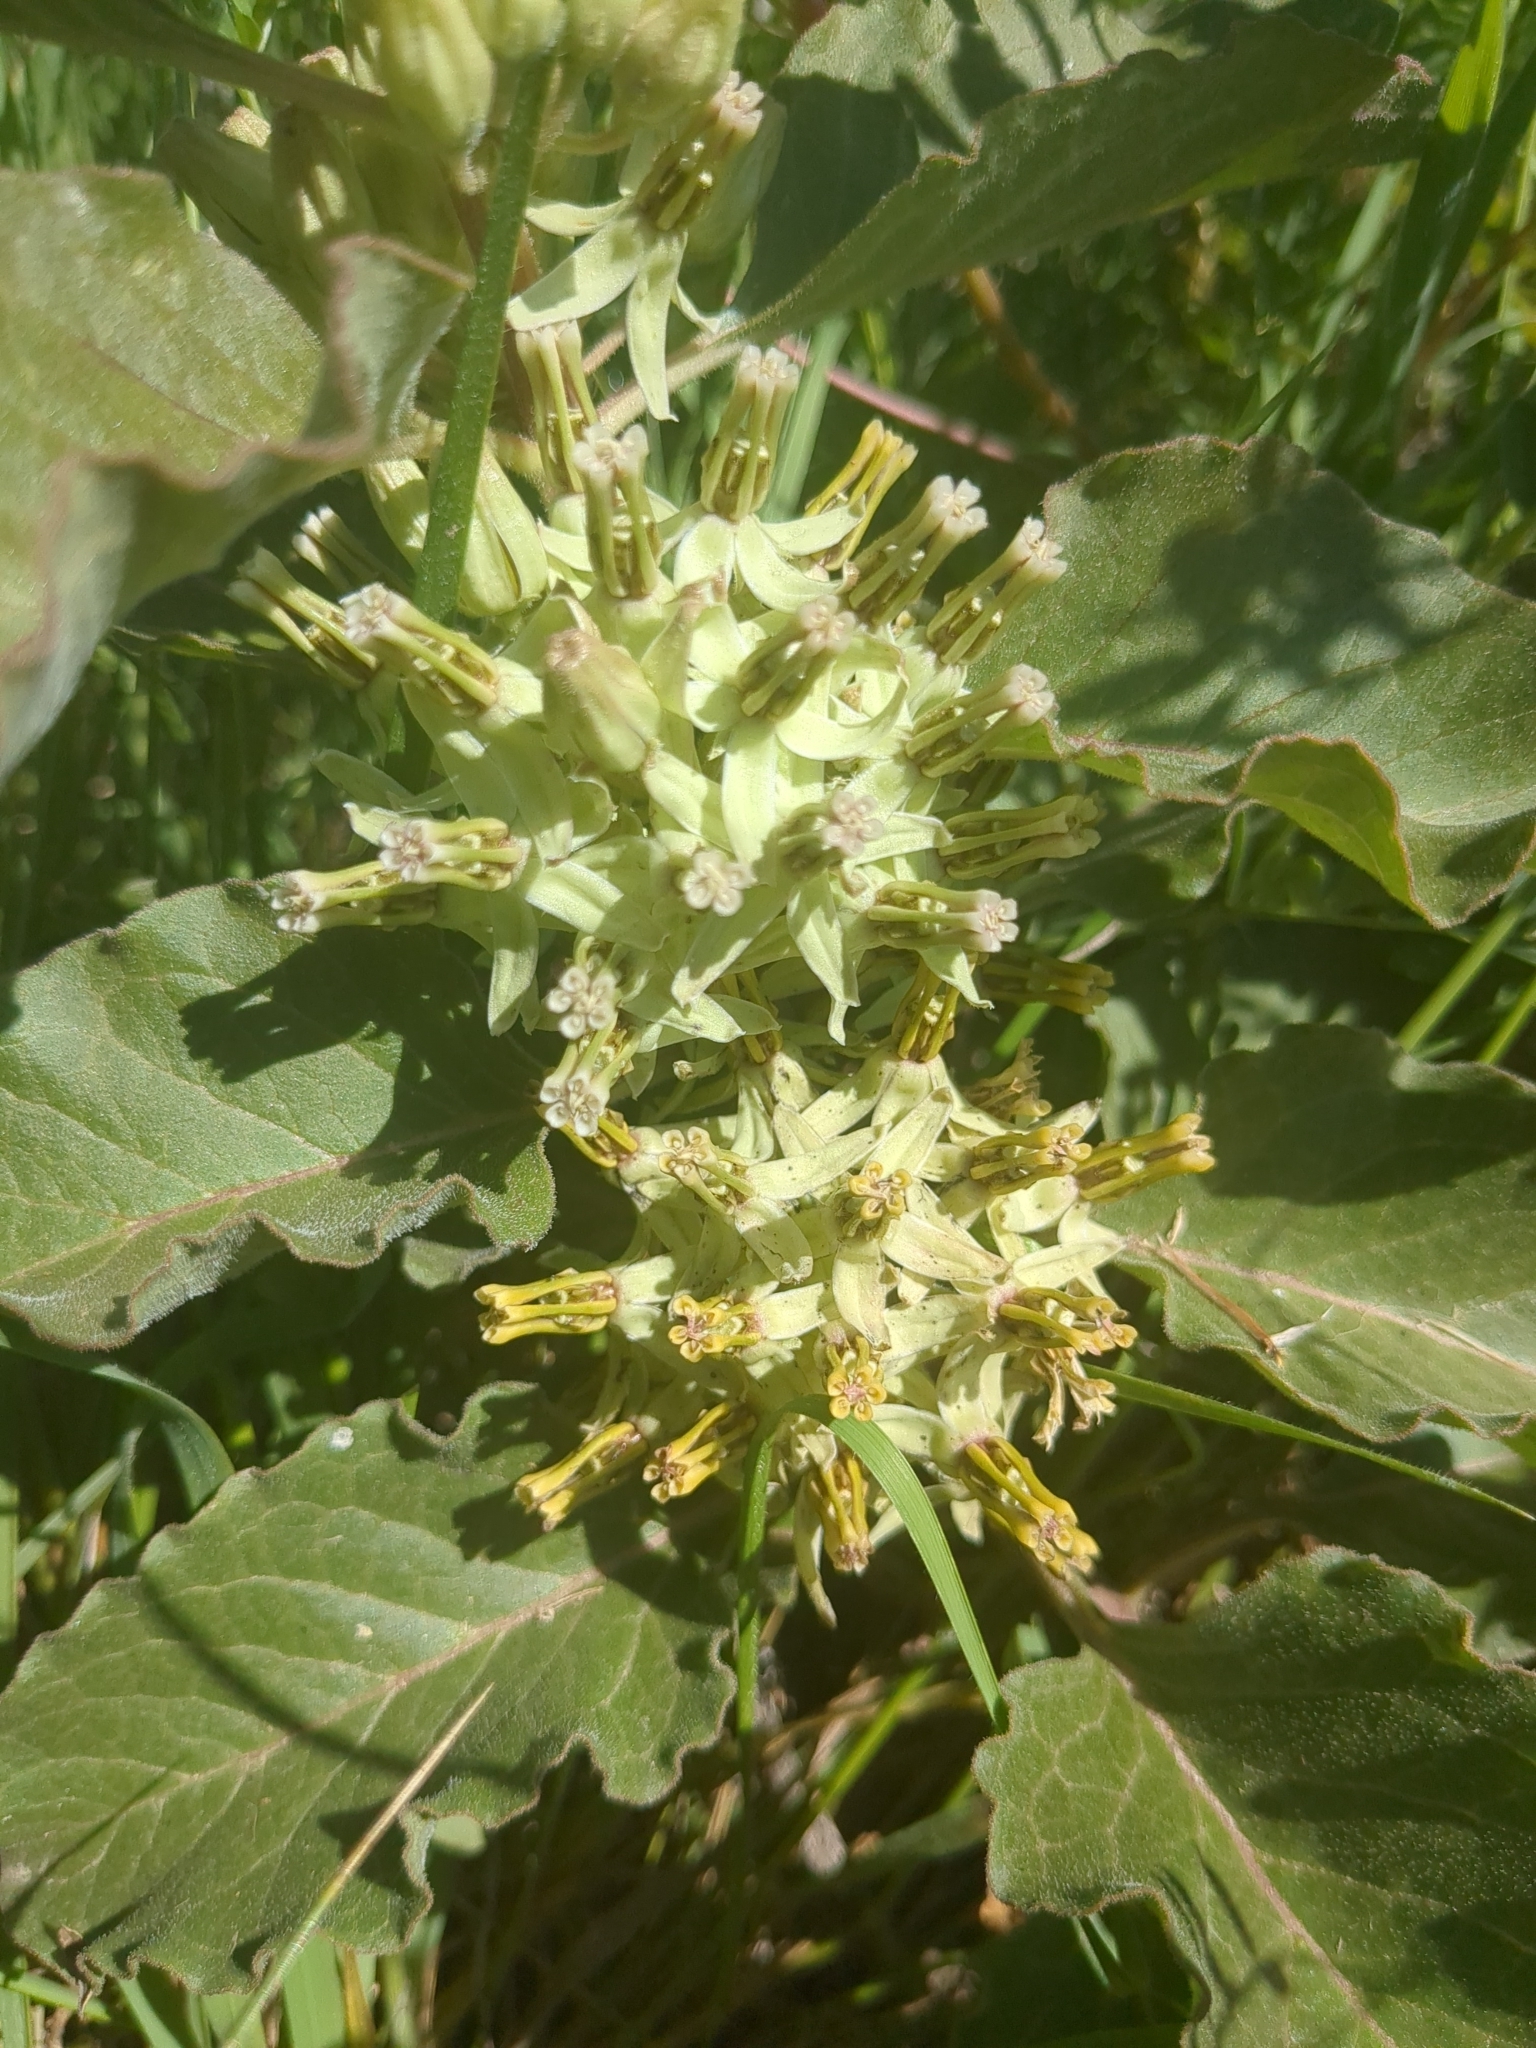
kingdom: Plantae
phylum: Tracheophyta
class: Magnoliopsida
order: Gentianales
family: Apocynaceae
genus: Asclepias
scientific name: Asclepias oenotheroides
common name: Zizotes milkweed
